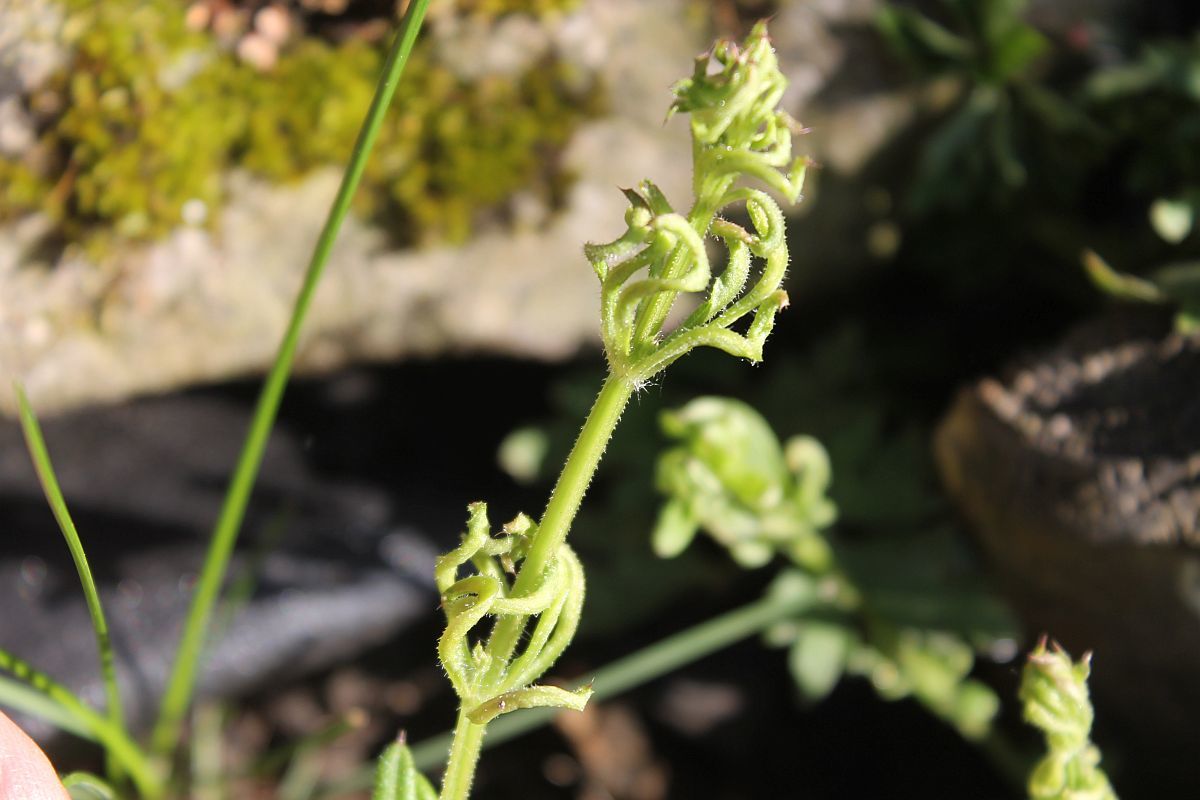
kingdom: Animalia
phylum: Arthropoda
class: Arachnida
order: Trombidiformes
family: Eriophyidae
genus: Cecidophyes
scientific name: Cecidophyes rouhollahi
